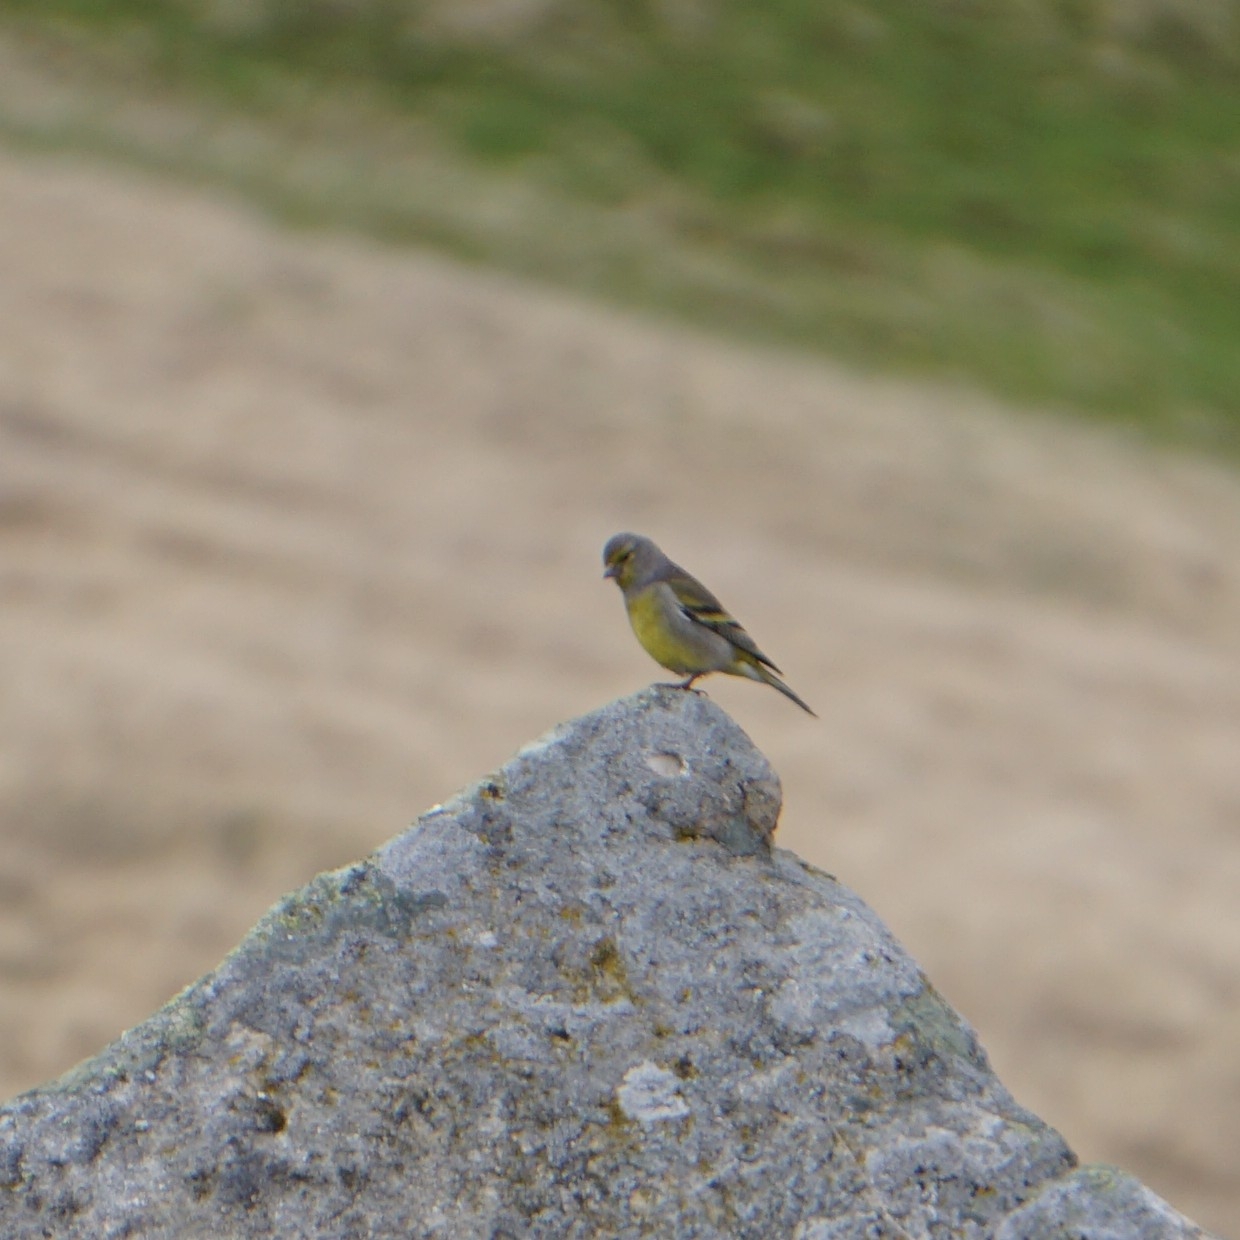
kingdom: Animalia
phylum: Chordata
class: Aves
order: Passeriformes
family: Fringillidae
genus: Carduelis
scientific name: Carduelis citrinella
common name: Citril finch
